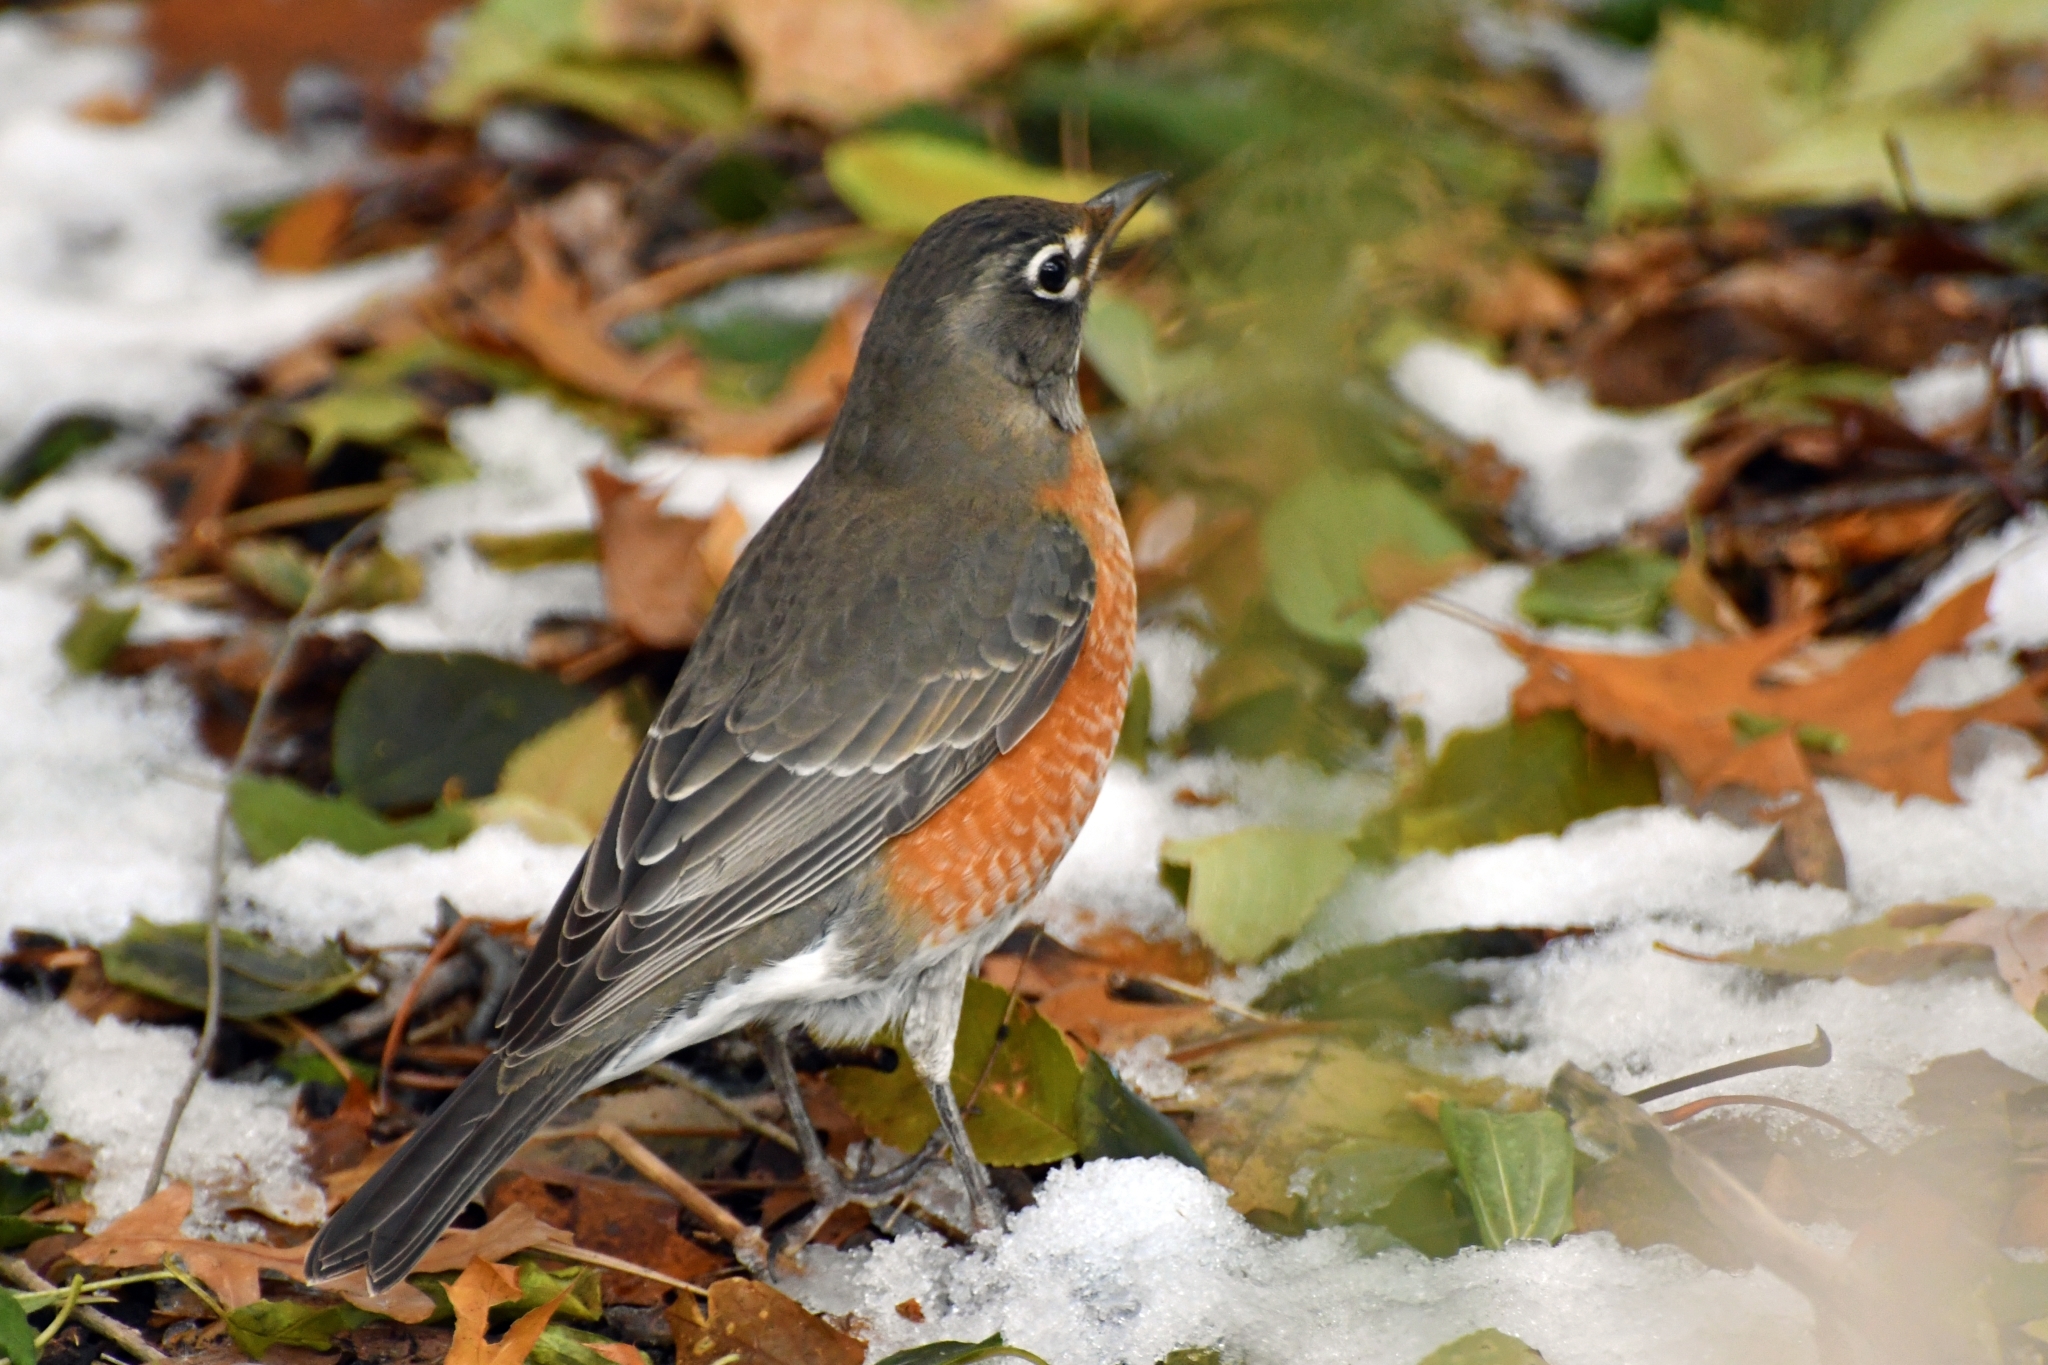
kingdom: Animalia
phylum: Chordata
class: Aves
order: Passeriformes
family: Turdidae
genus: Turdus
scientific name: Turdus migratorius
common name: American robin
